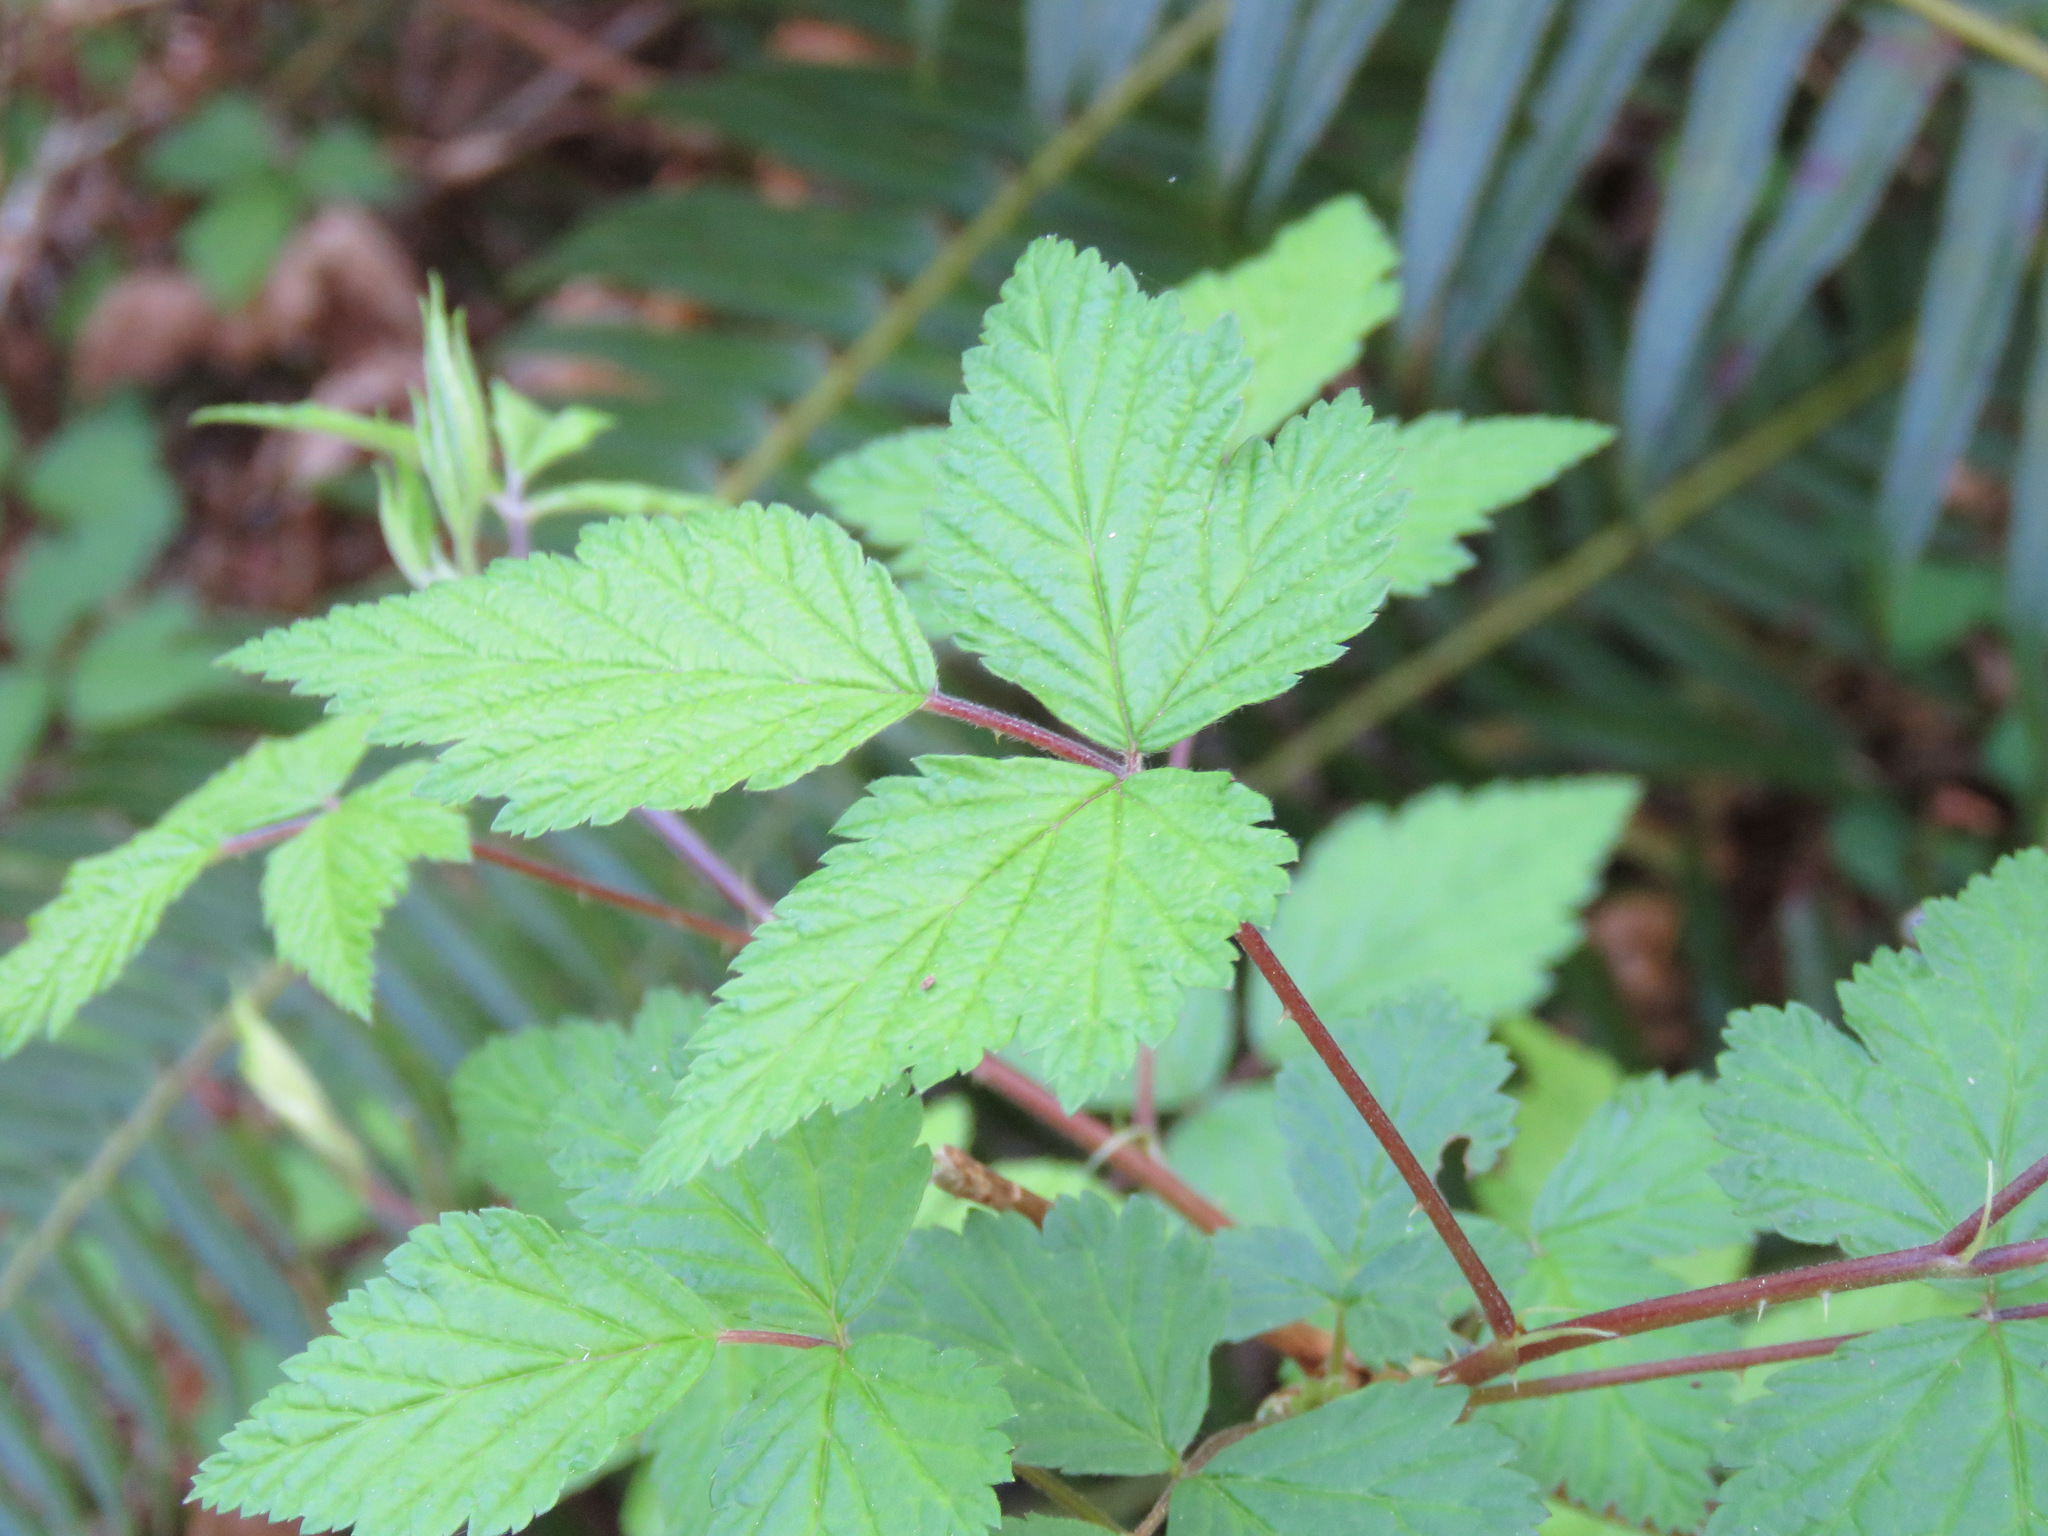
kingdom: Plantae
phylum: Tracheophyta
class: Magnoliopsida
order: Rosales
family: Rosaceae
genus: Rubus
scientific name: Rubus spectabilis
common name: Salmonberry
